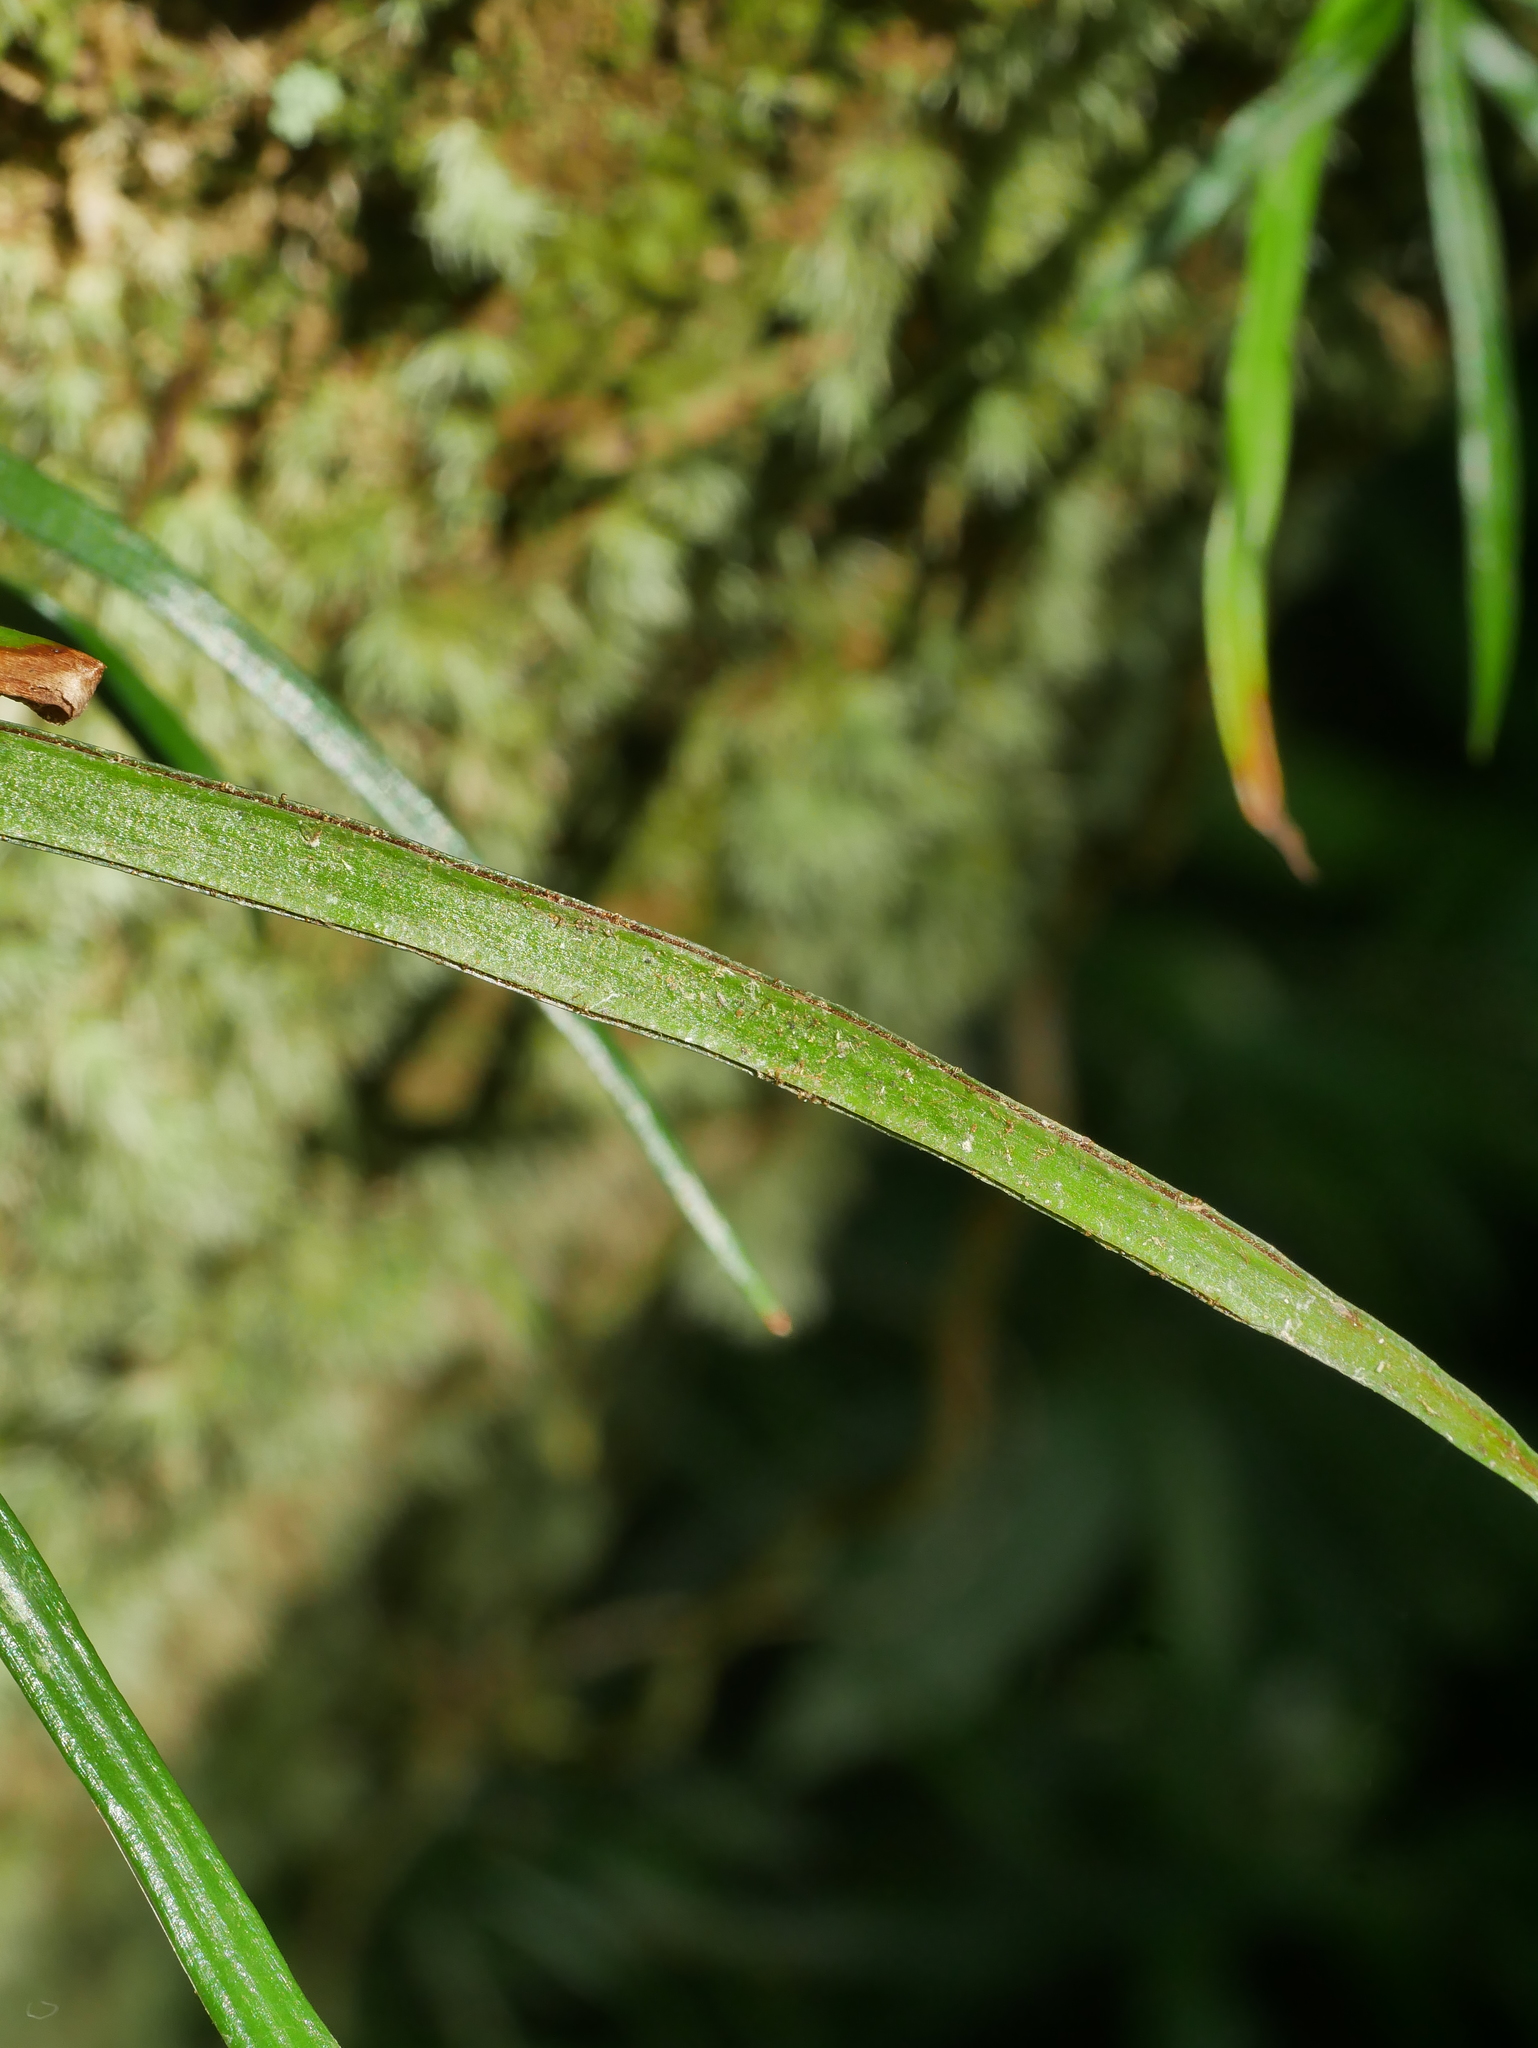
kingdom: Plantae
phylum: Tracheophyta
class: Polypodiopsida
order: Polypodiales
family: Pteridaceae
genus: Haplopteris
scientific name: Haplopteris anguste-elongata
